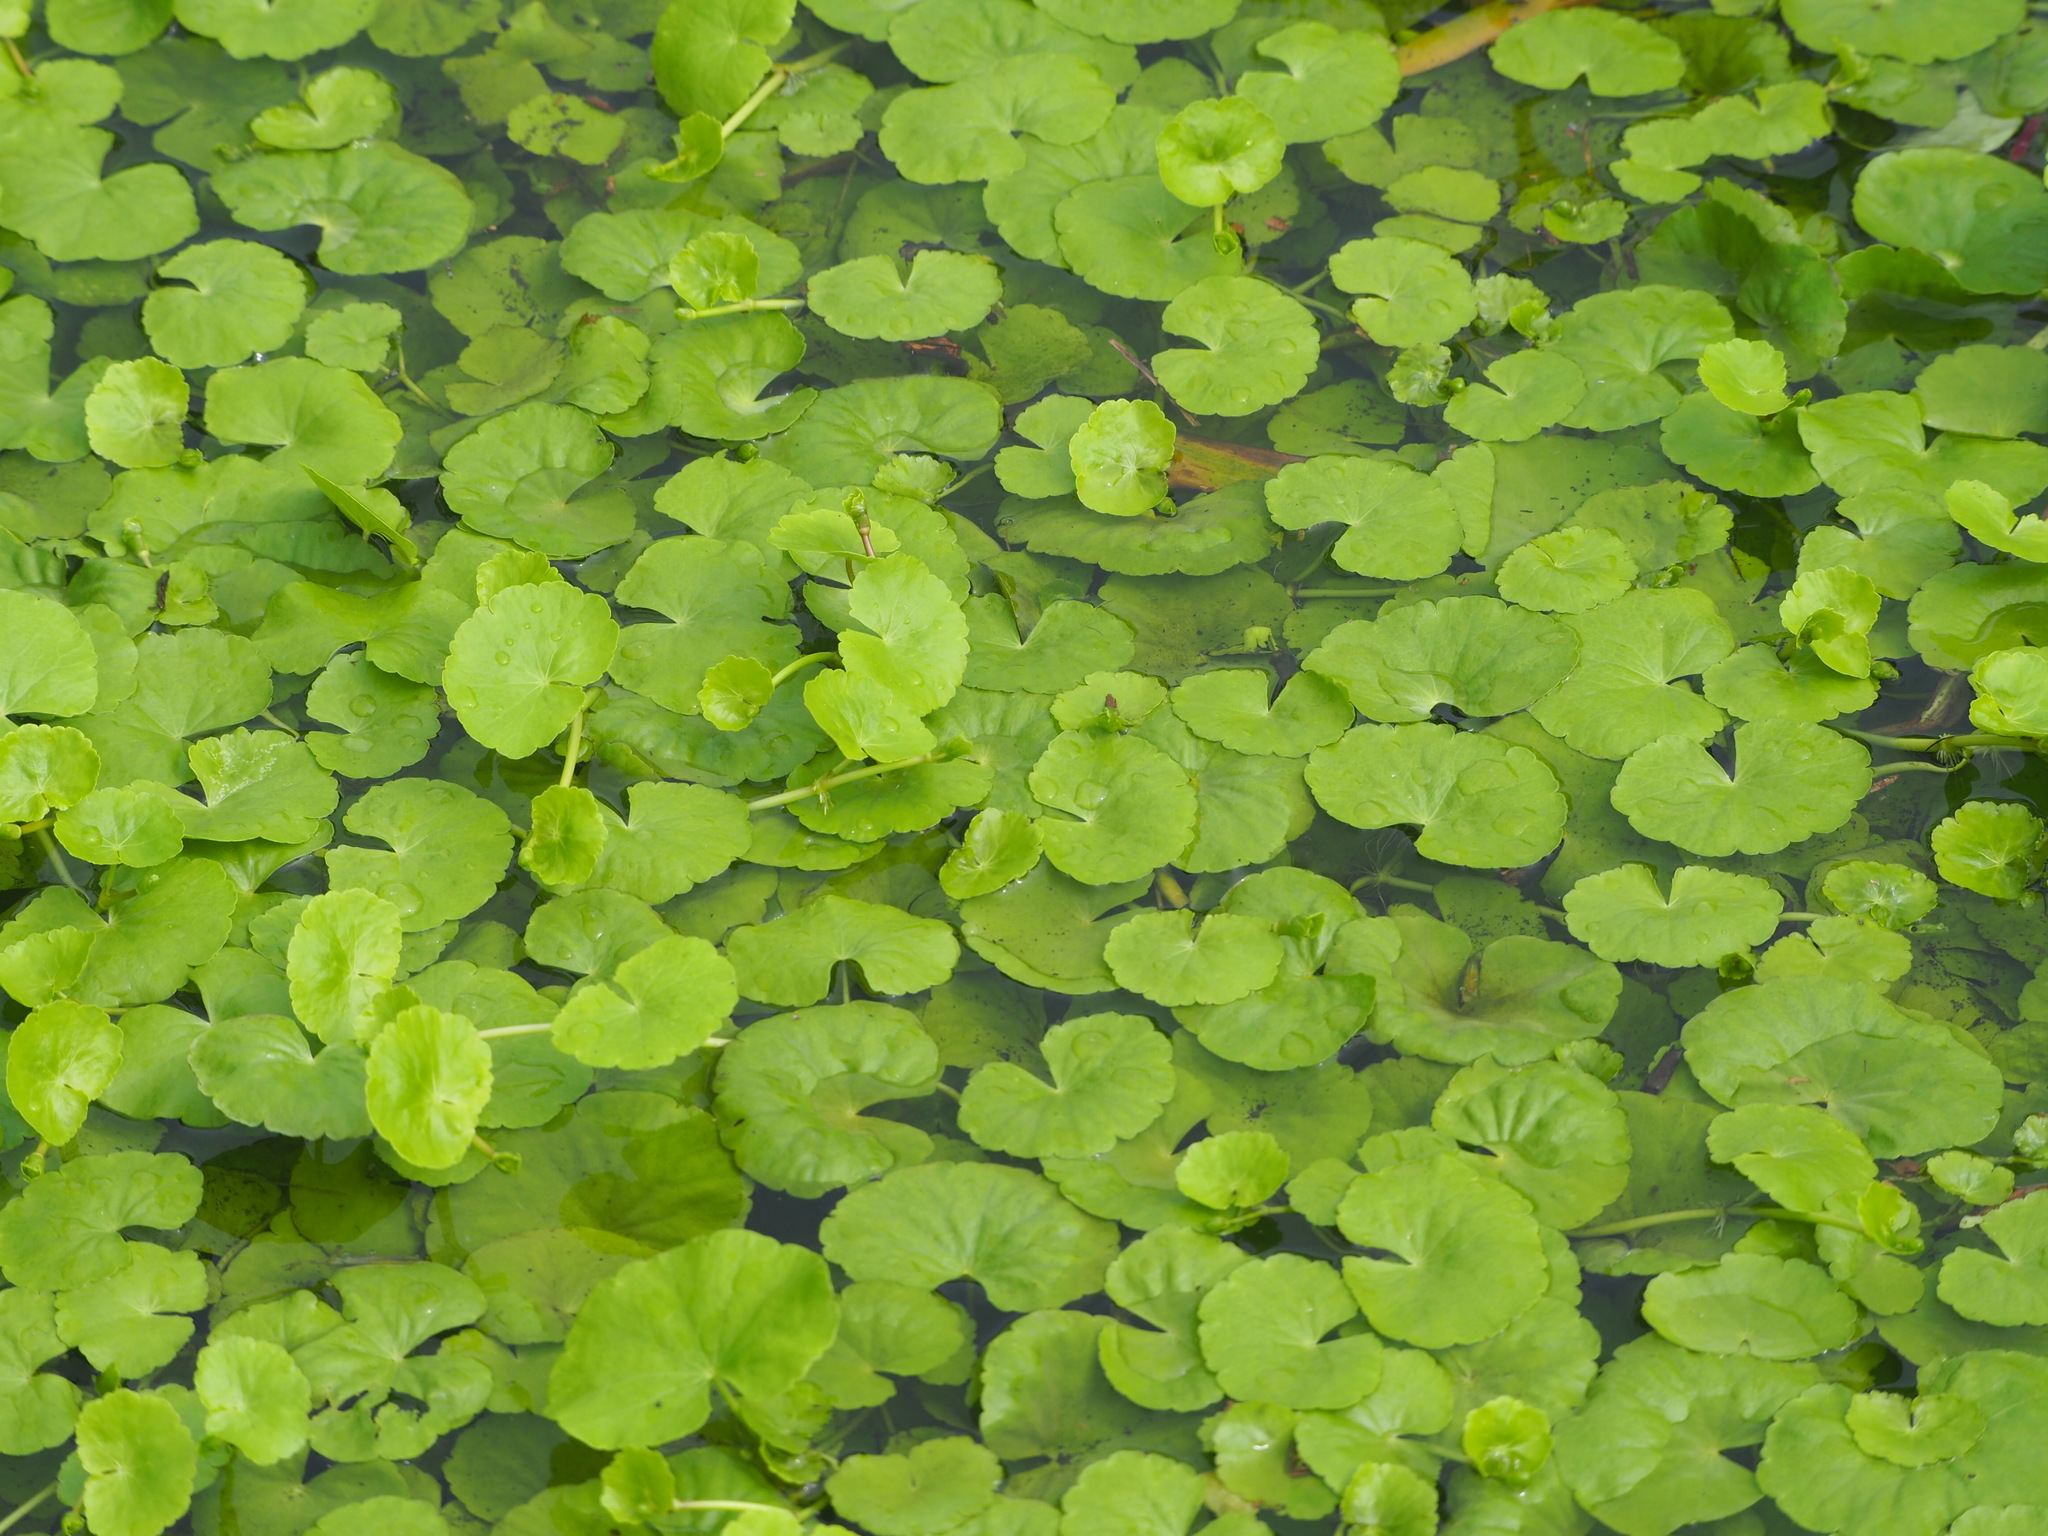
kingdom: Plantae
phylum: Tracheophyta
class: Magnoliopsida
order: Apiales
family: Apiaceae
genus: Centella
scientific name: Centella asiatica
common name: Spadeleaf
